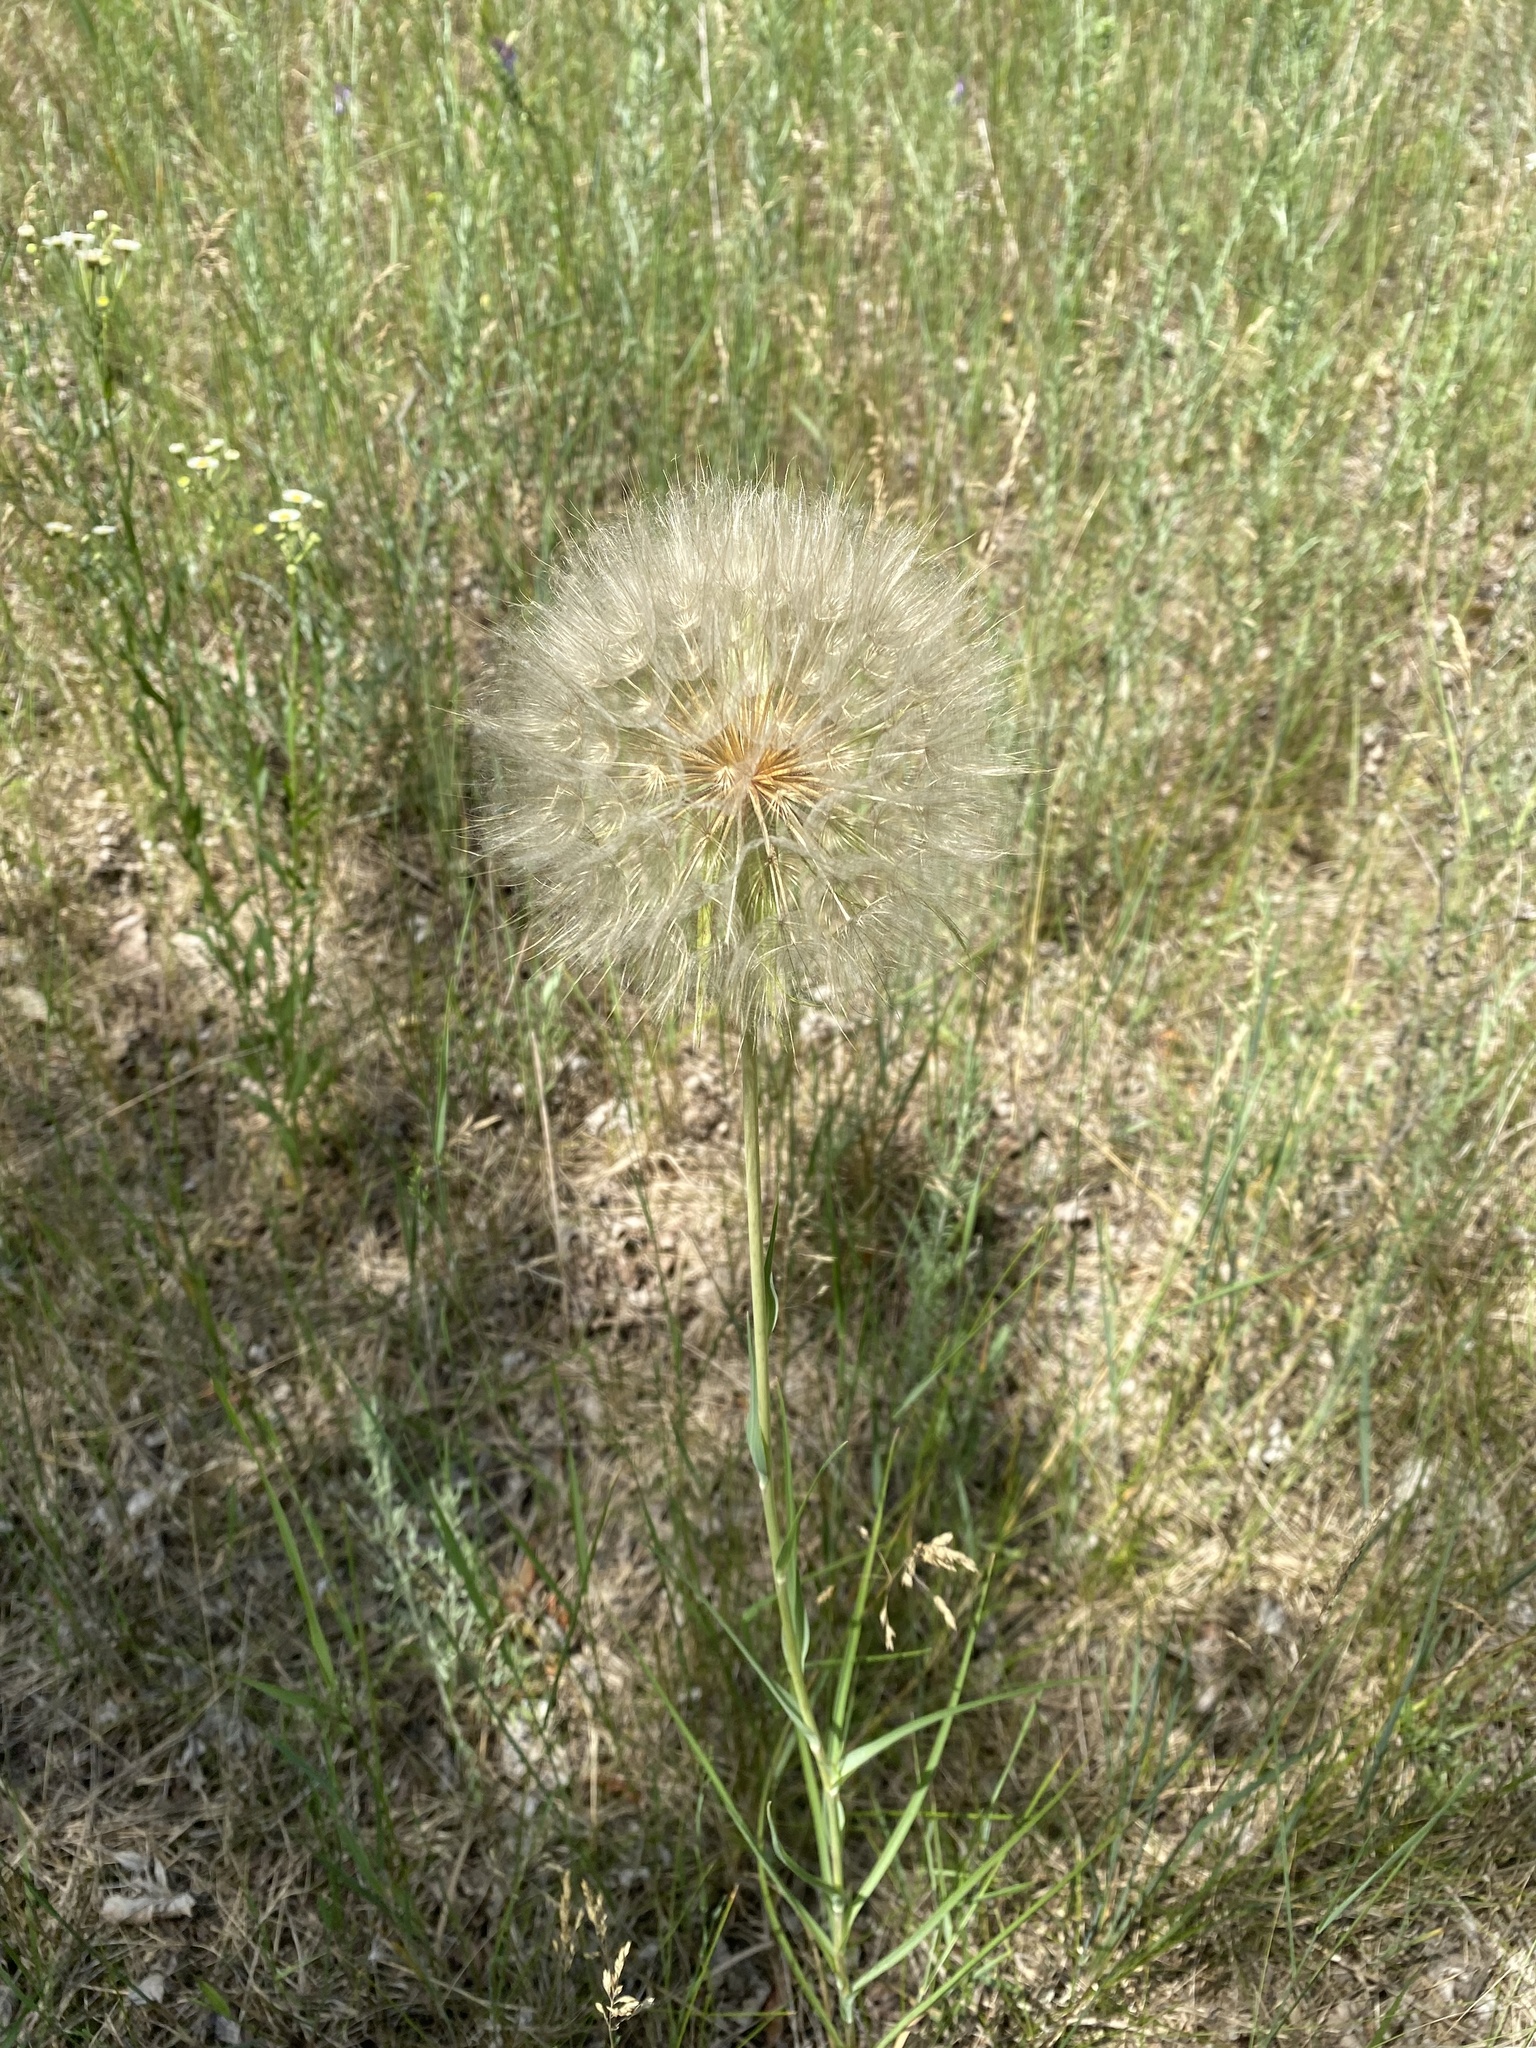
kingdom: Plantae
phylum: Tracheophyta
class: Magnoliopsida
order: Asterales
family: Asteraceae
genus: Tragopogon
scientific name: Tragopogon dubius
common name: Yellow salsify
